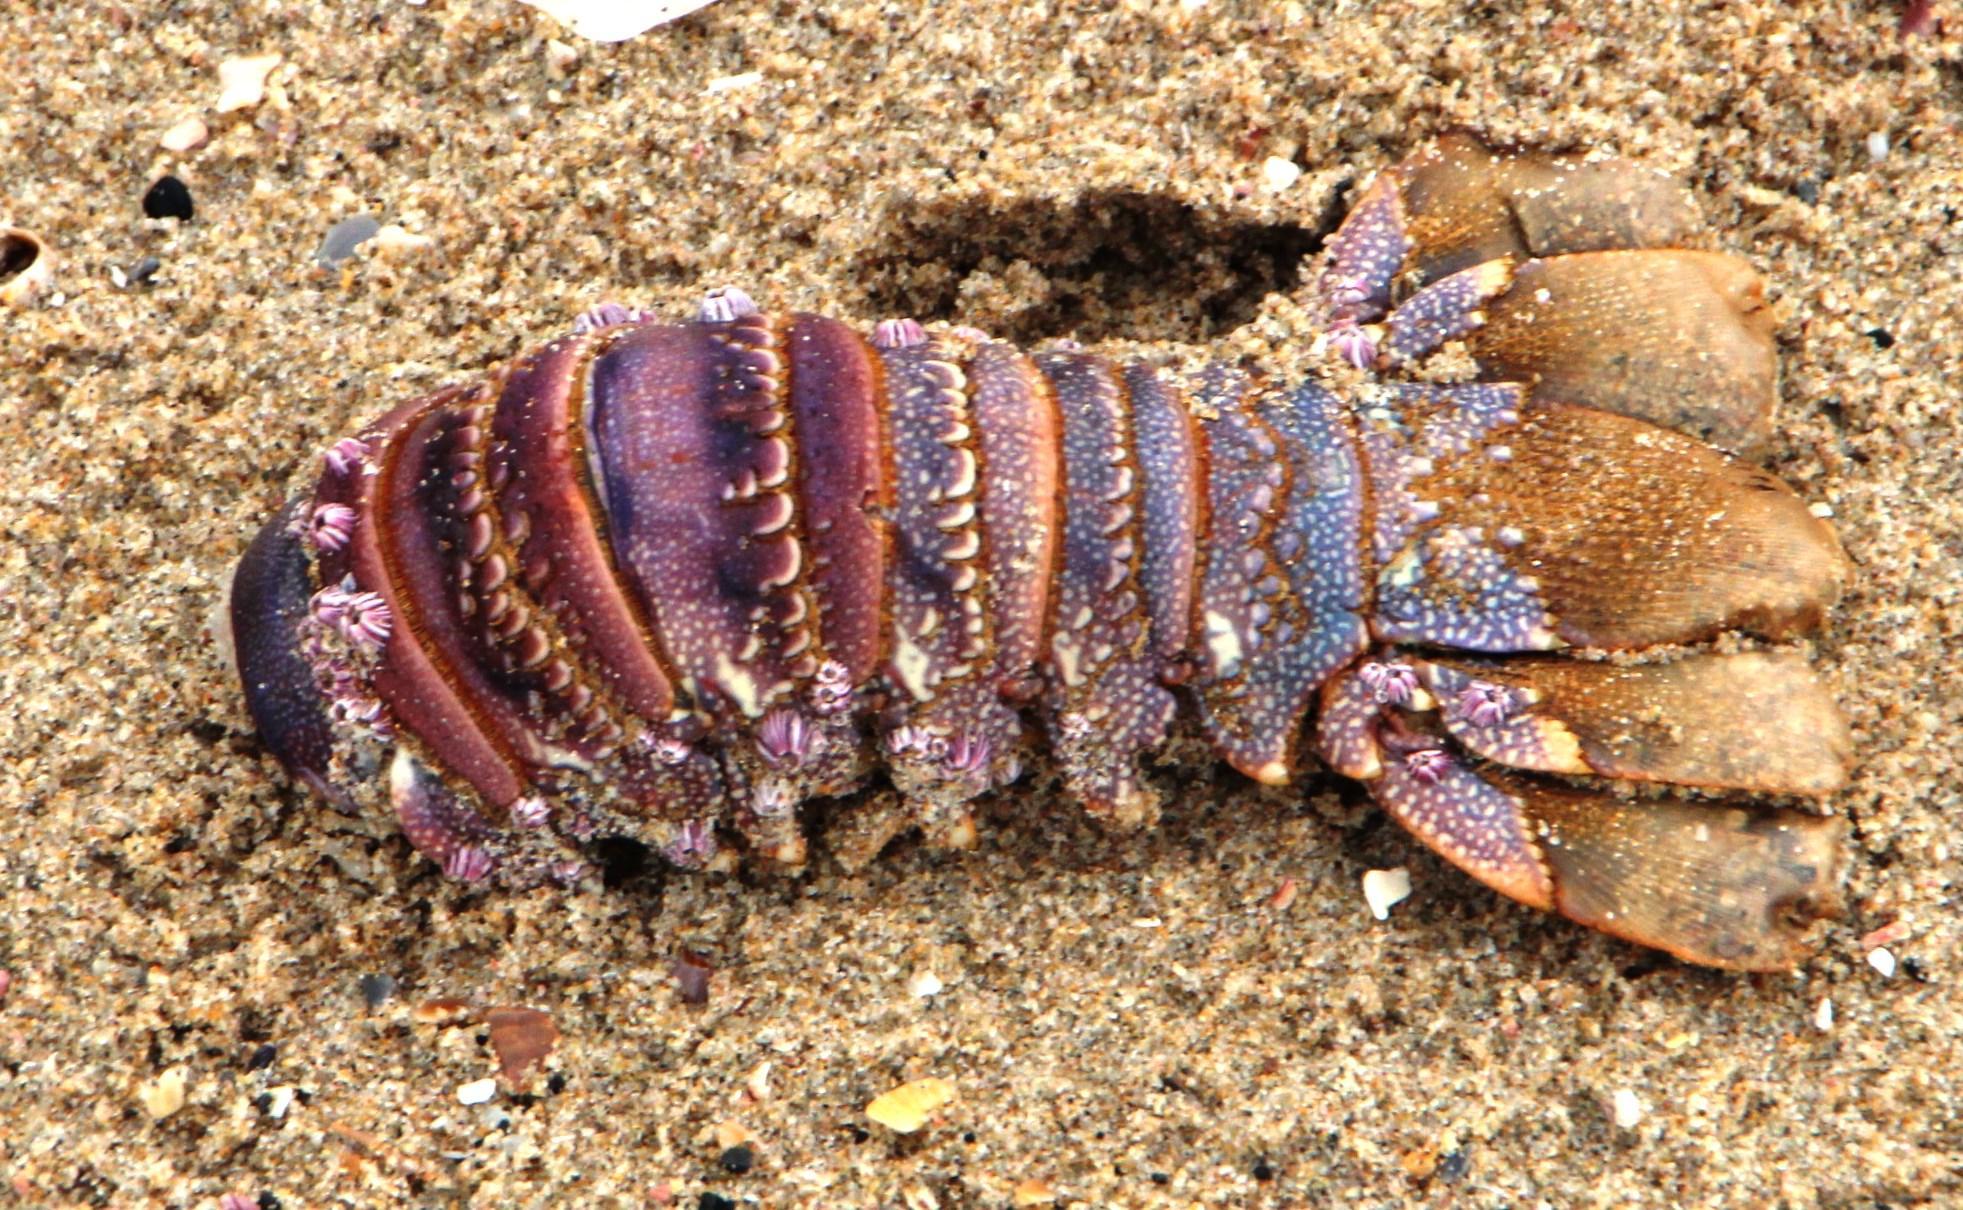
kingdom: Animalia
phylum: Arthropoda
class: Malacostraca
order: Decapoda
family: Palinuridae
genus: Panulirus
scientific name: Panulirus homarus
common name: Scalloped spiny lobster
